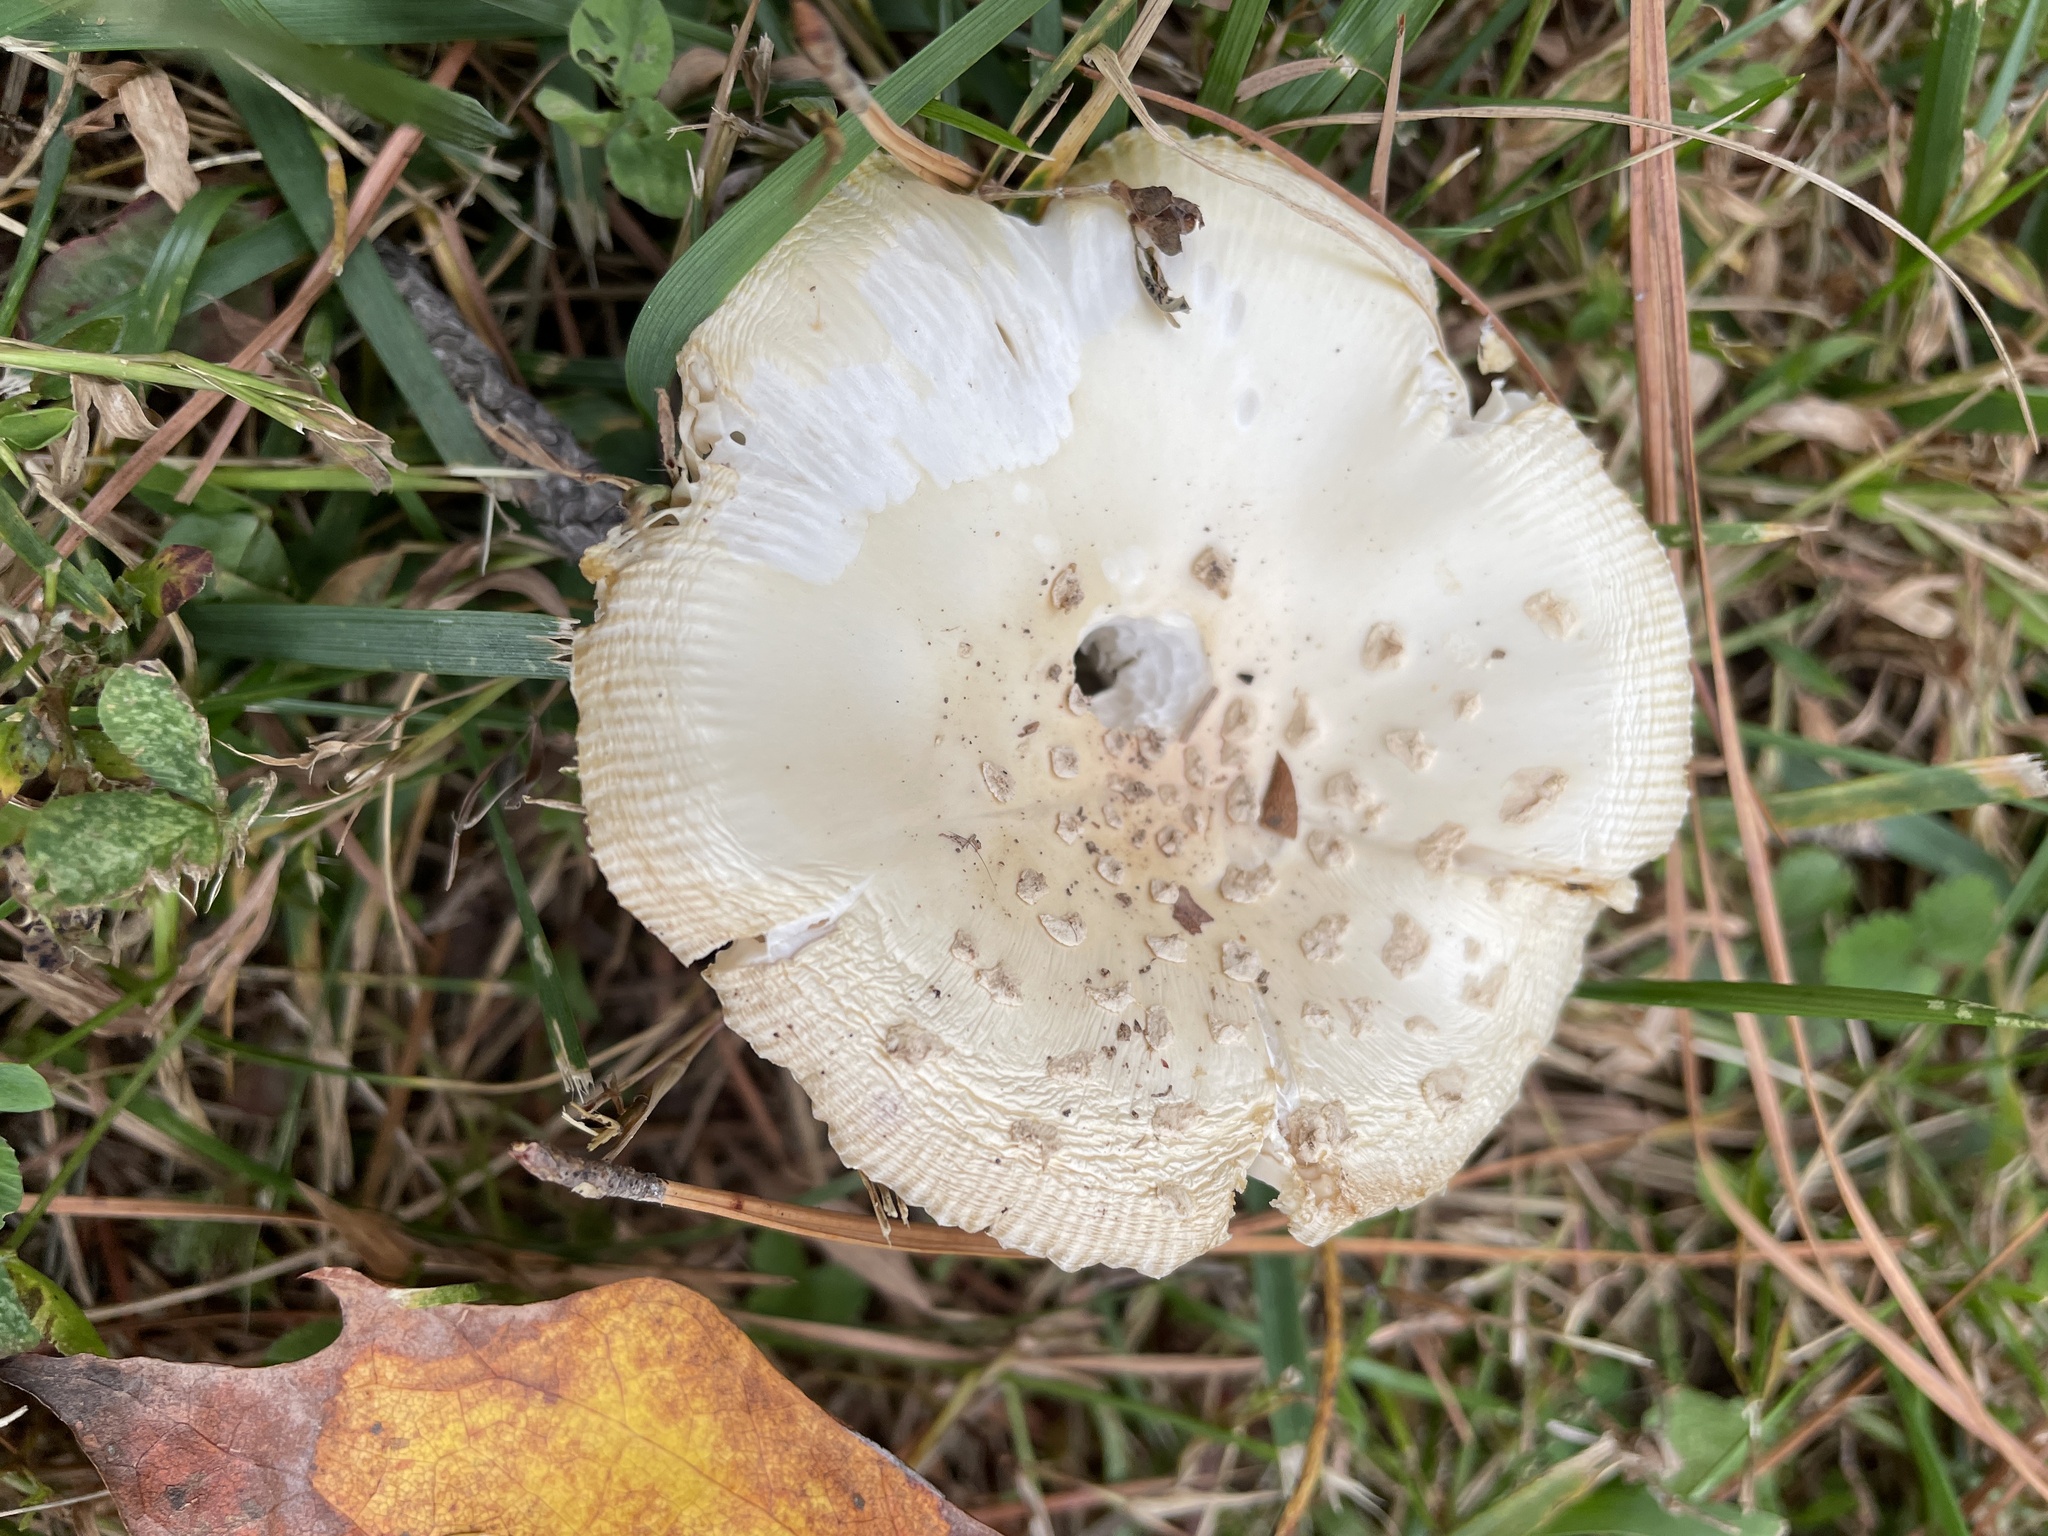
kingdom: Fungi
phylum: Basidiomycota
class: Agaricomycetes
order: Agaricales
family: Amanitaceae
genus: Amanita
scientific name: Amanita muscaria
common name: Fly agaric
